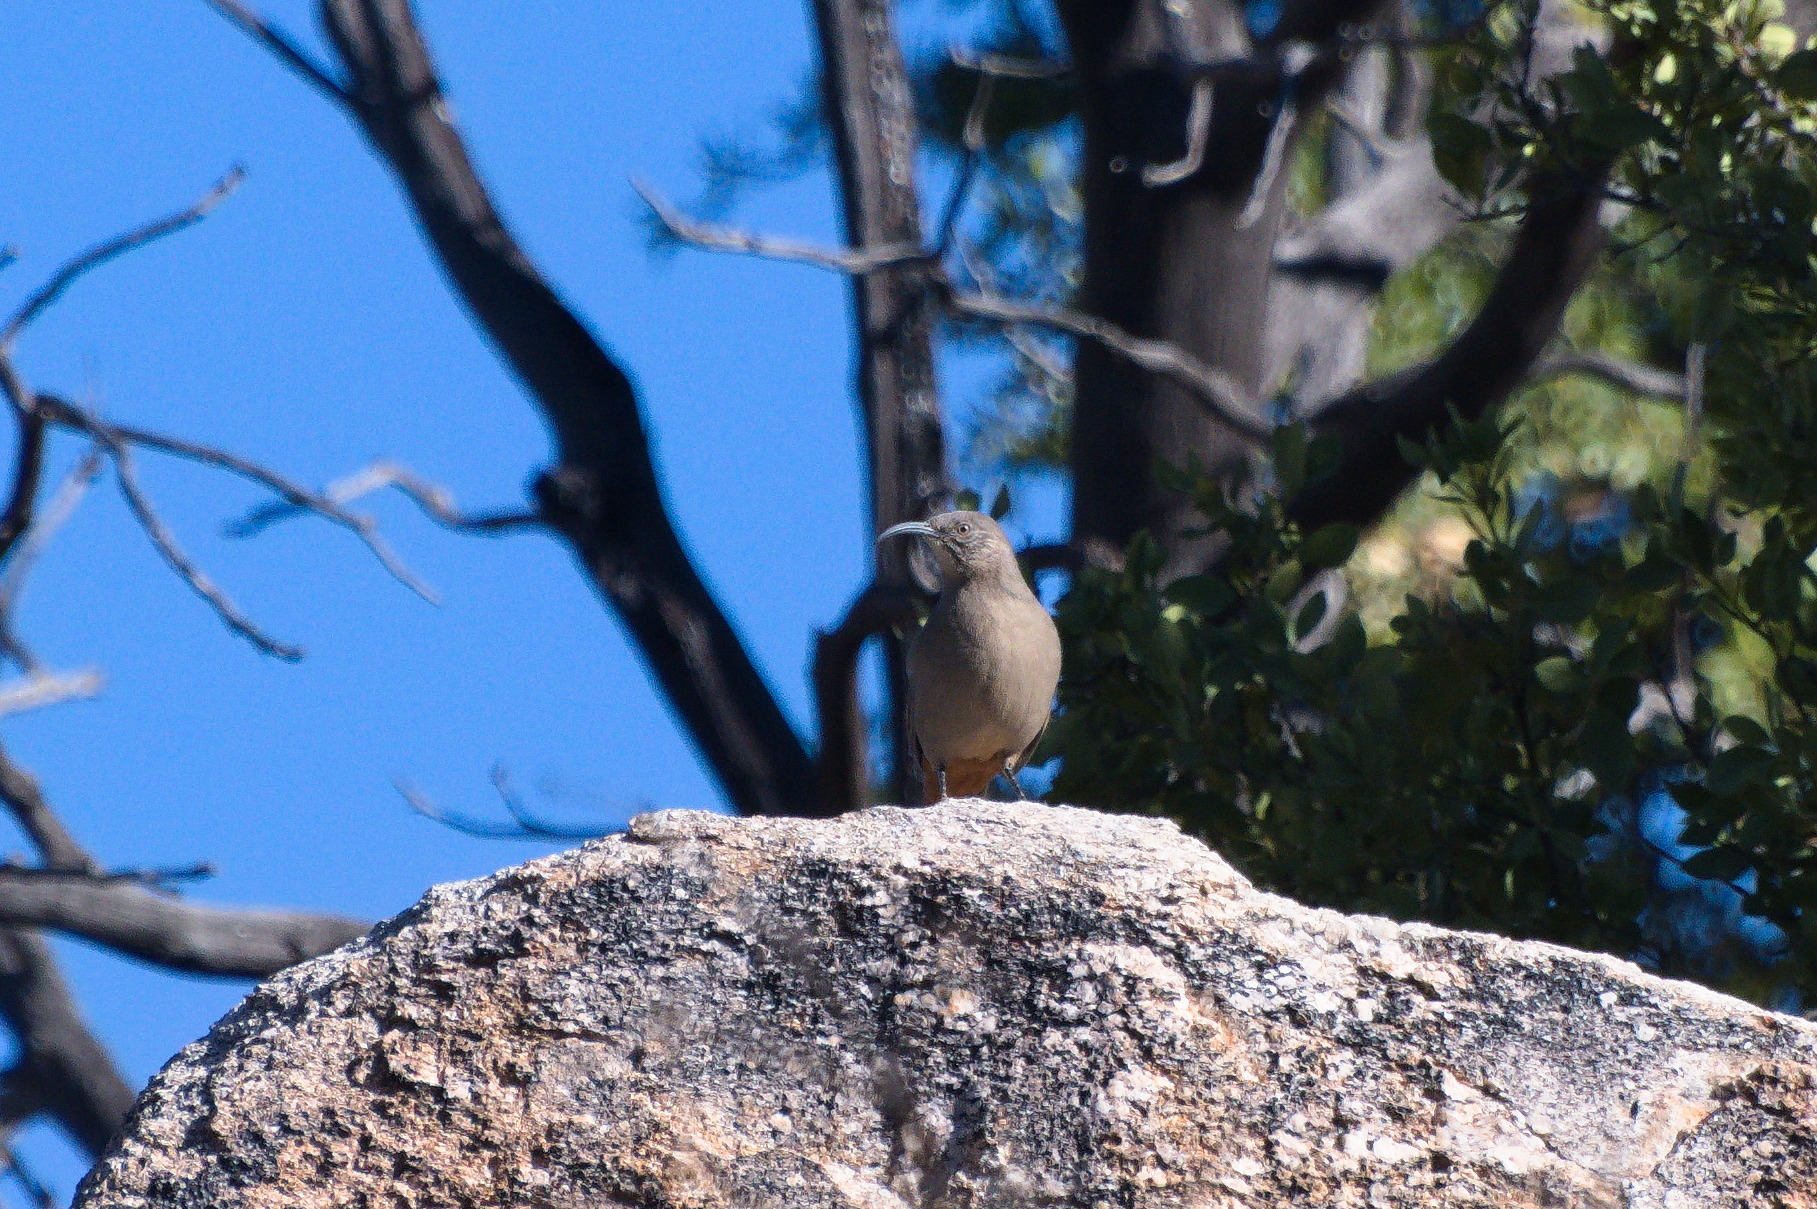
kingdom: Animalia
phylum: Chordata
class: Aves
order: Passeriformes
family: Mimidae
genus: Toxostoma
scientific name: Toxostoma crissale
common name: Crissal thrasher
